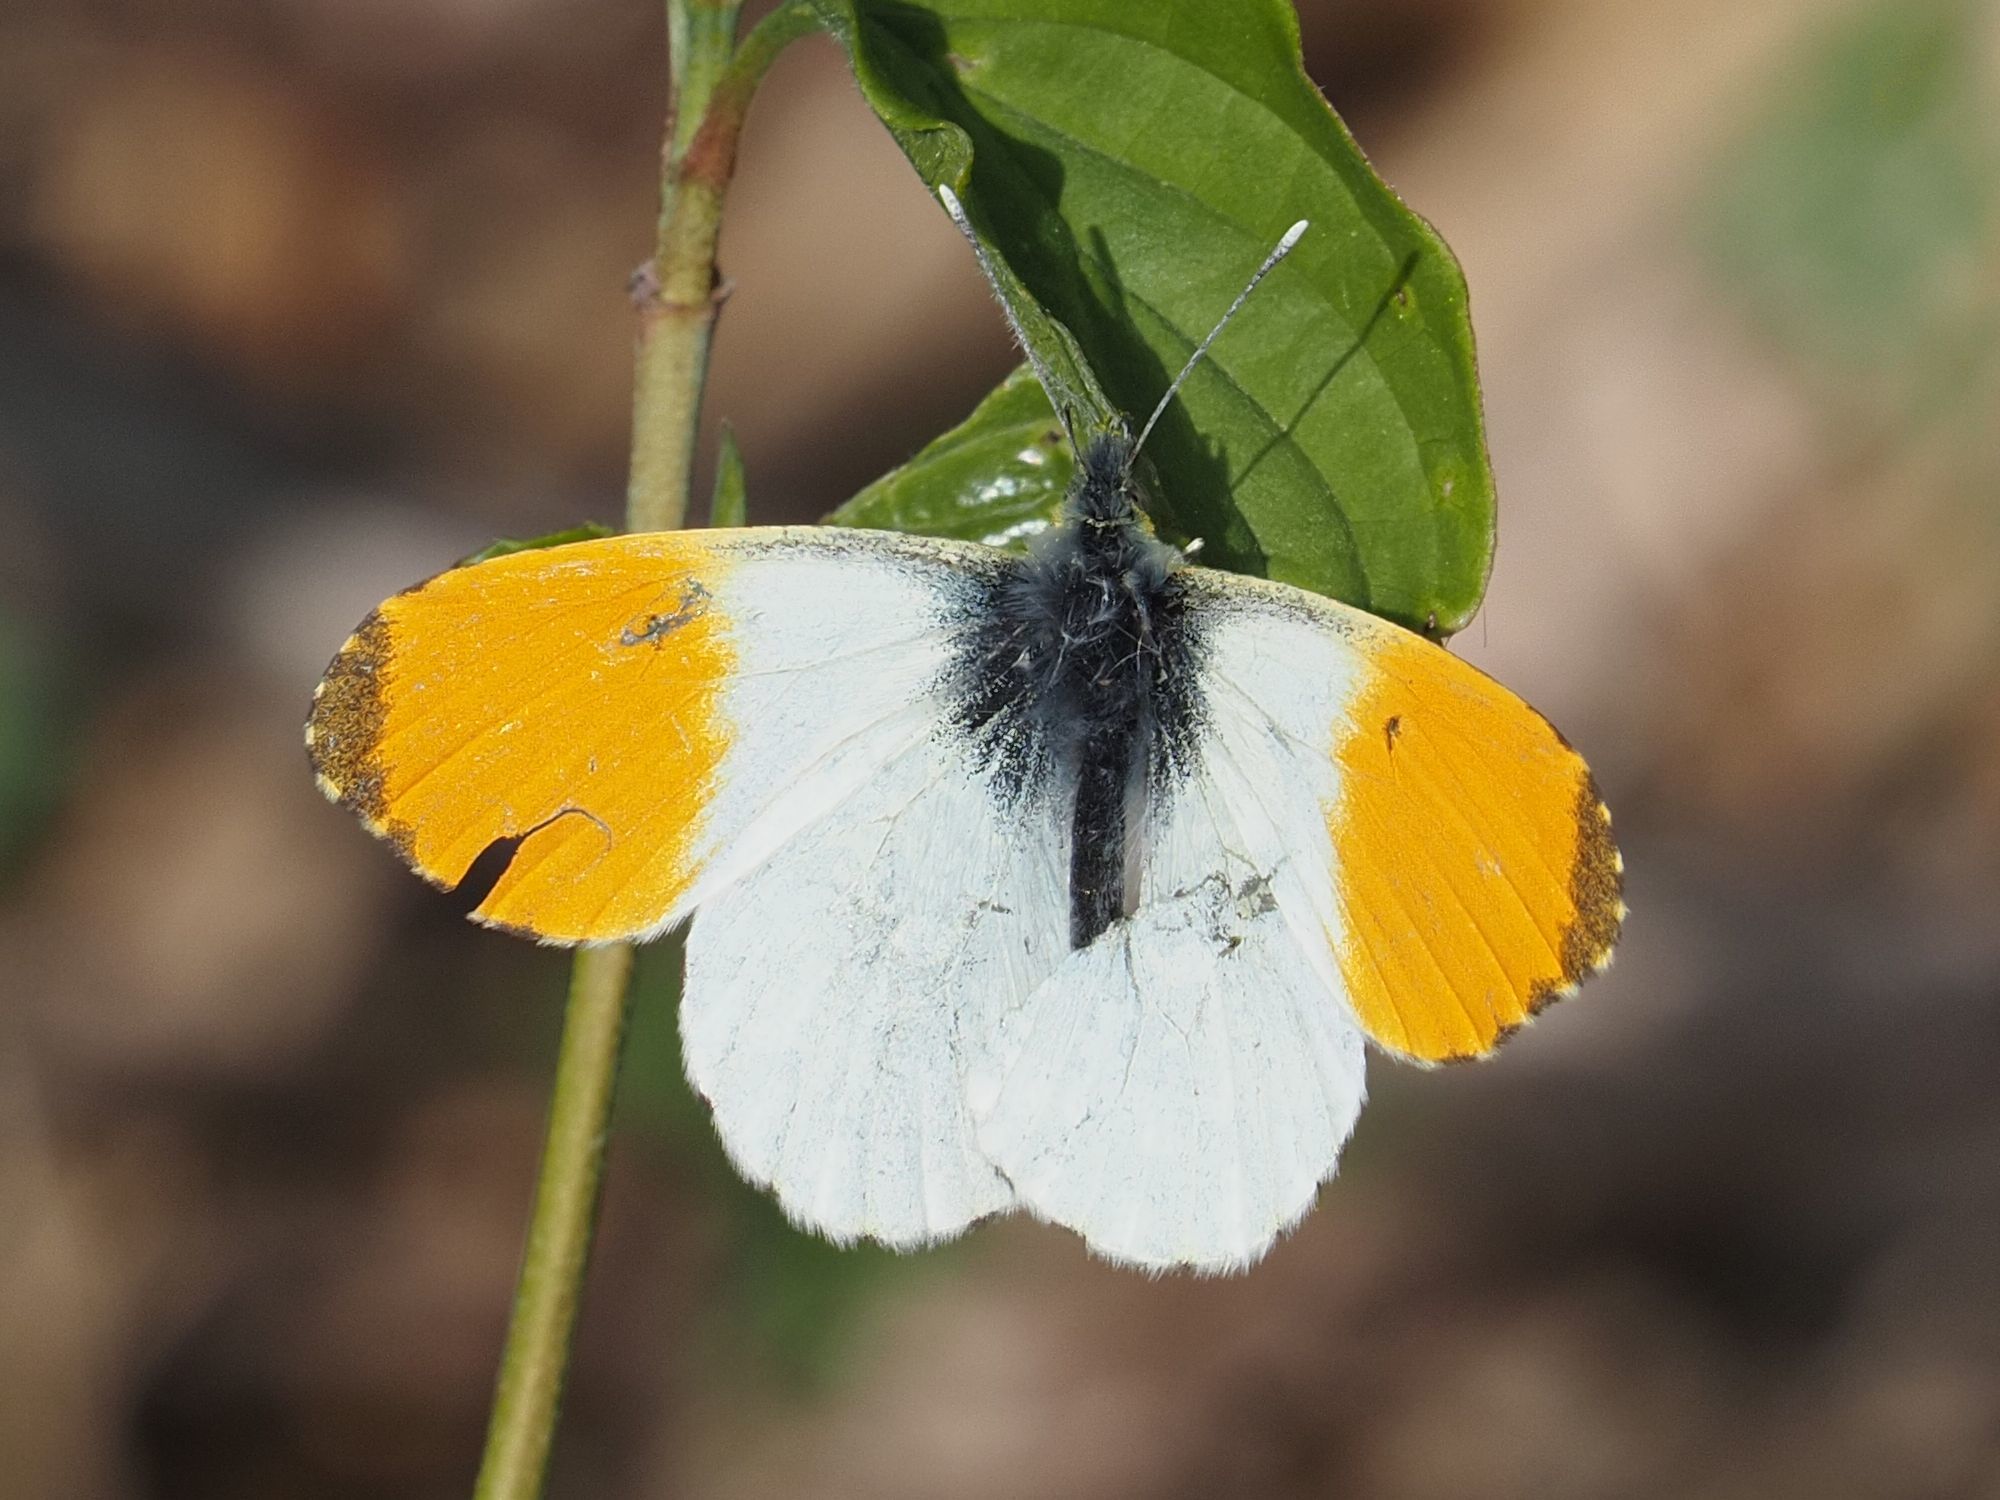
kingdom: Animalia
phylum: Arthropoda
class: Insecta
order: Lepidoptera
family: Pieridae
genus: Anthocharis
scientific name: Anthocharis cardamines
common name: Orange-tip
